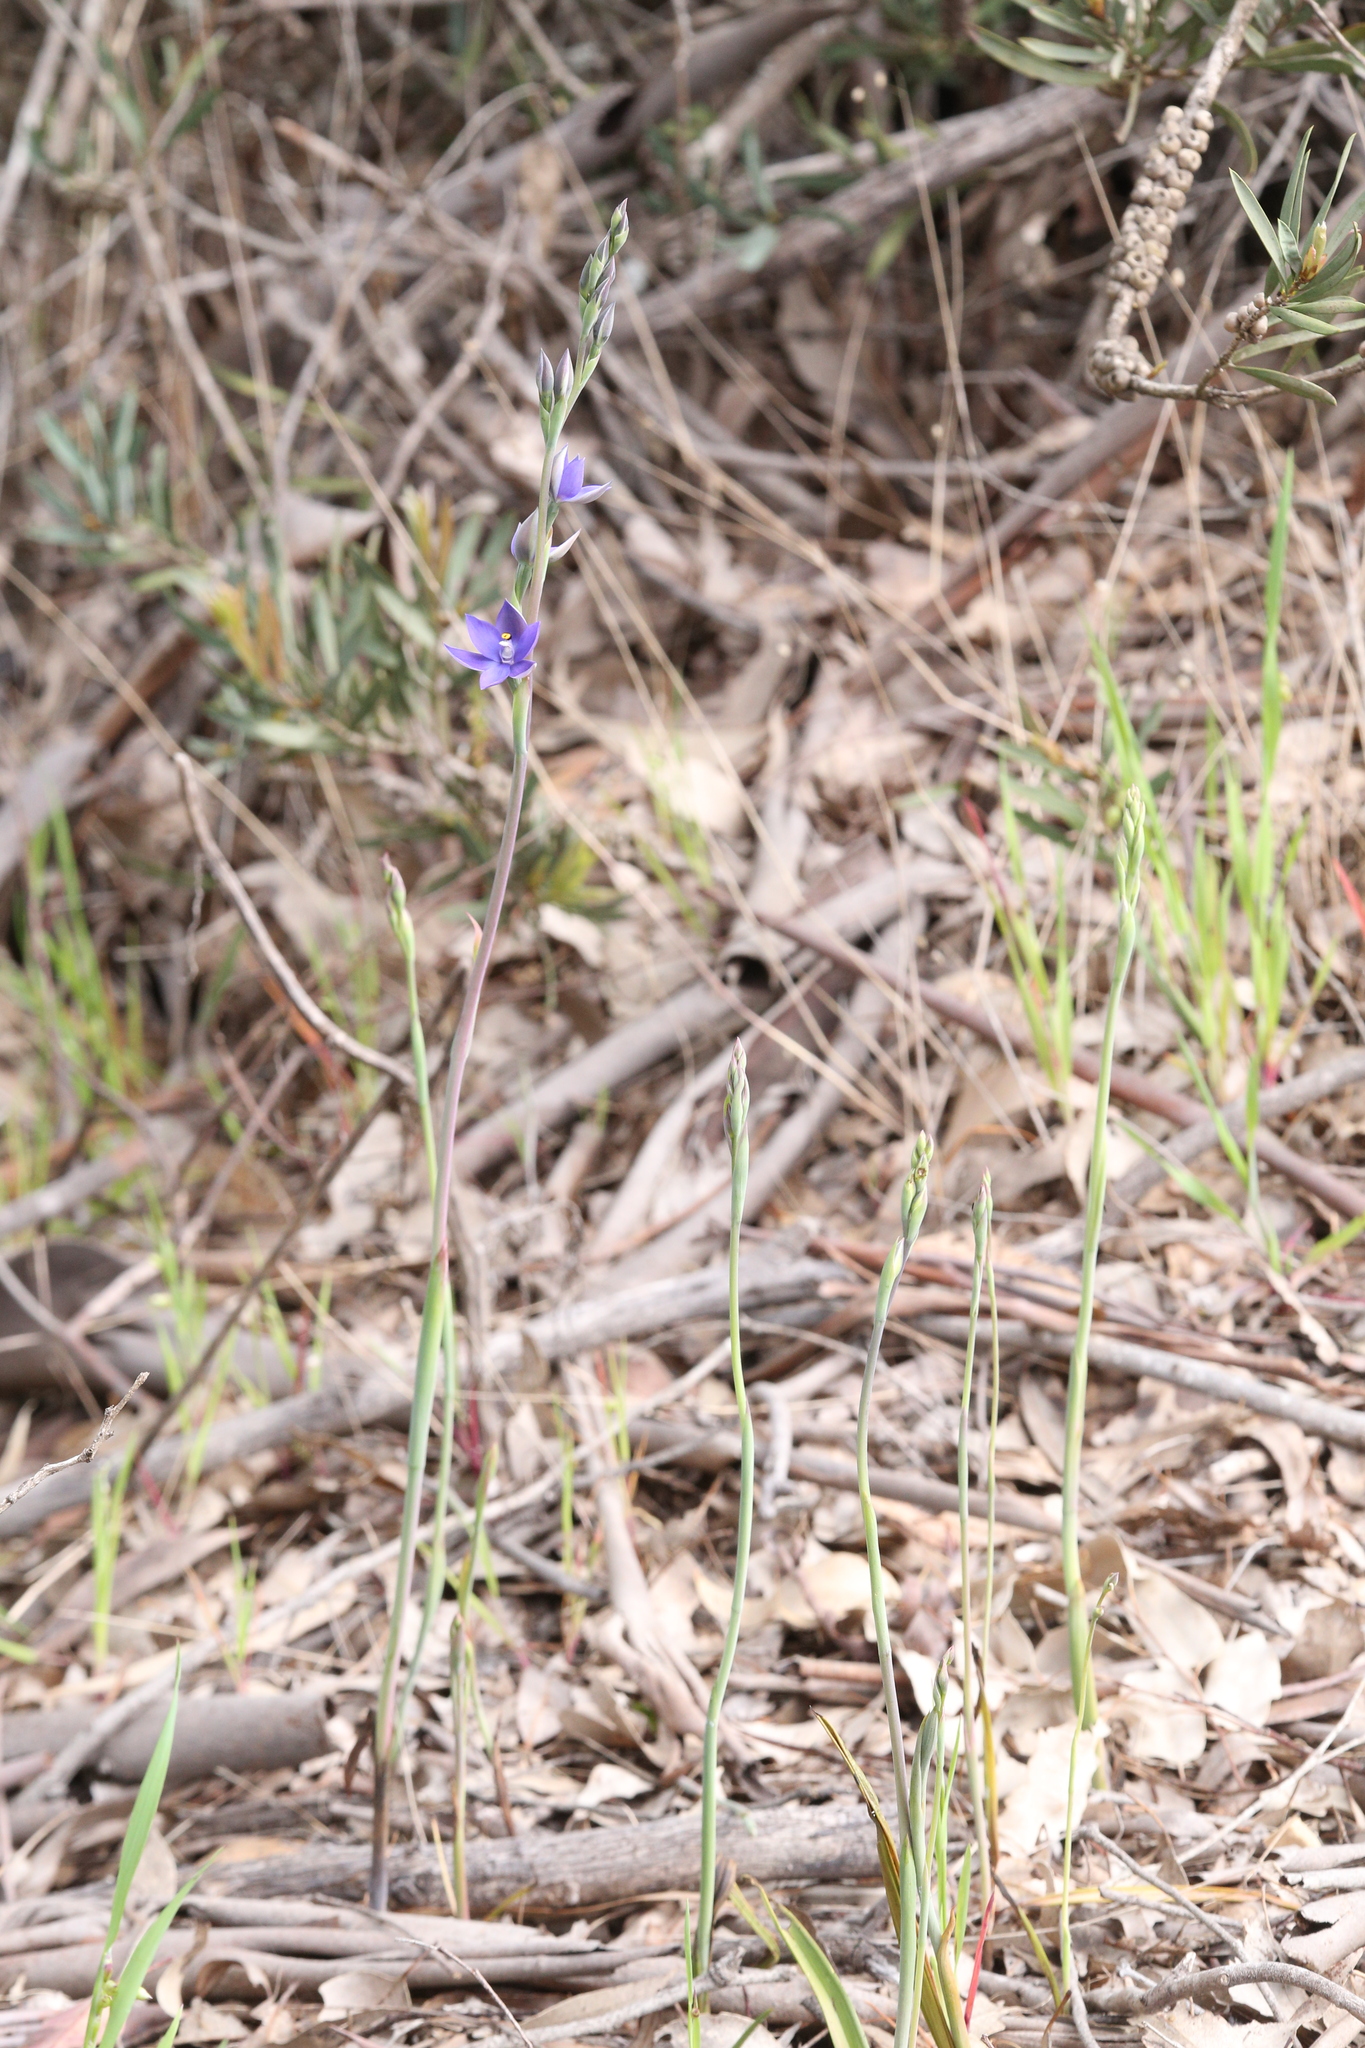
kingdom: Plantae
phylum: Tracheophyta
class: Liliopsida
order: Asparagales
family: Orchidaceae
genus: Thelymitra
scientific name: Thelymitra macrophylla
